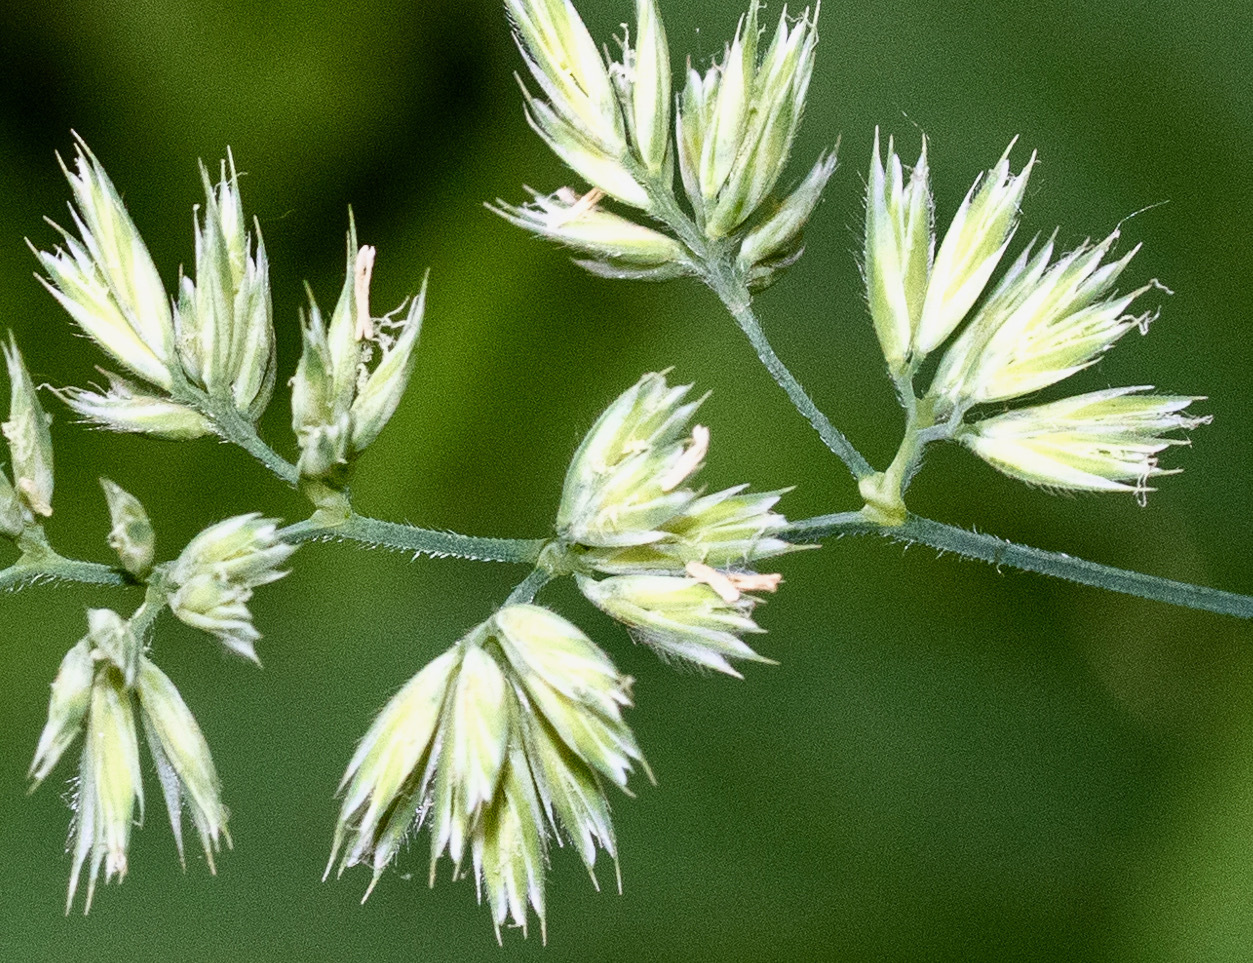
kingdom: Plantae
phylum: Tracheophyta
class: Liliopsida
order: Poales
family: Poaceae
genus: Dactylis
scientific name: Dactylis glomerata
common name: Orchardgrass
